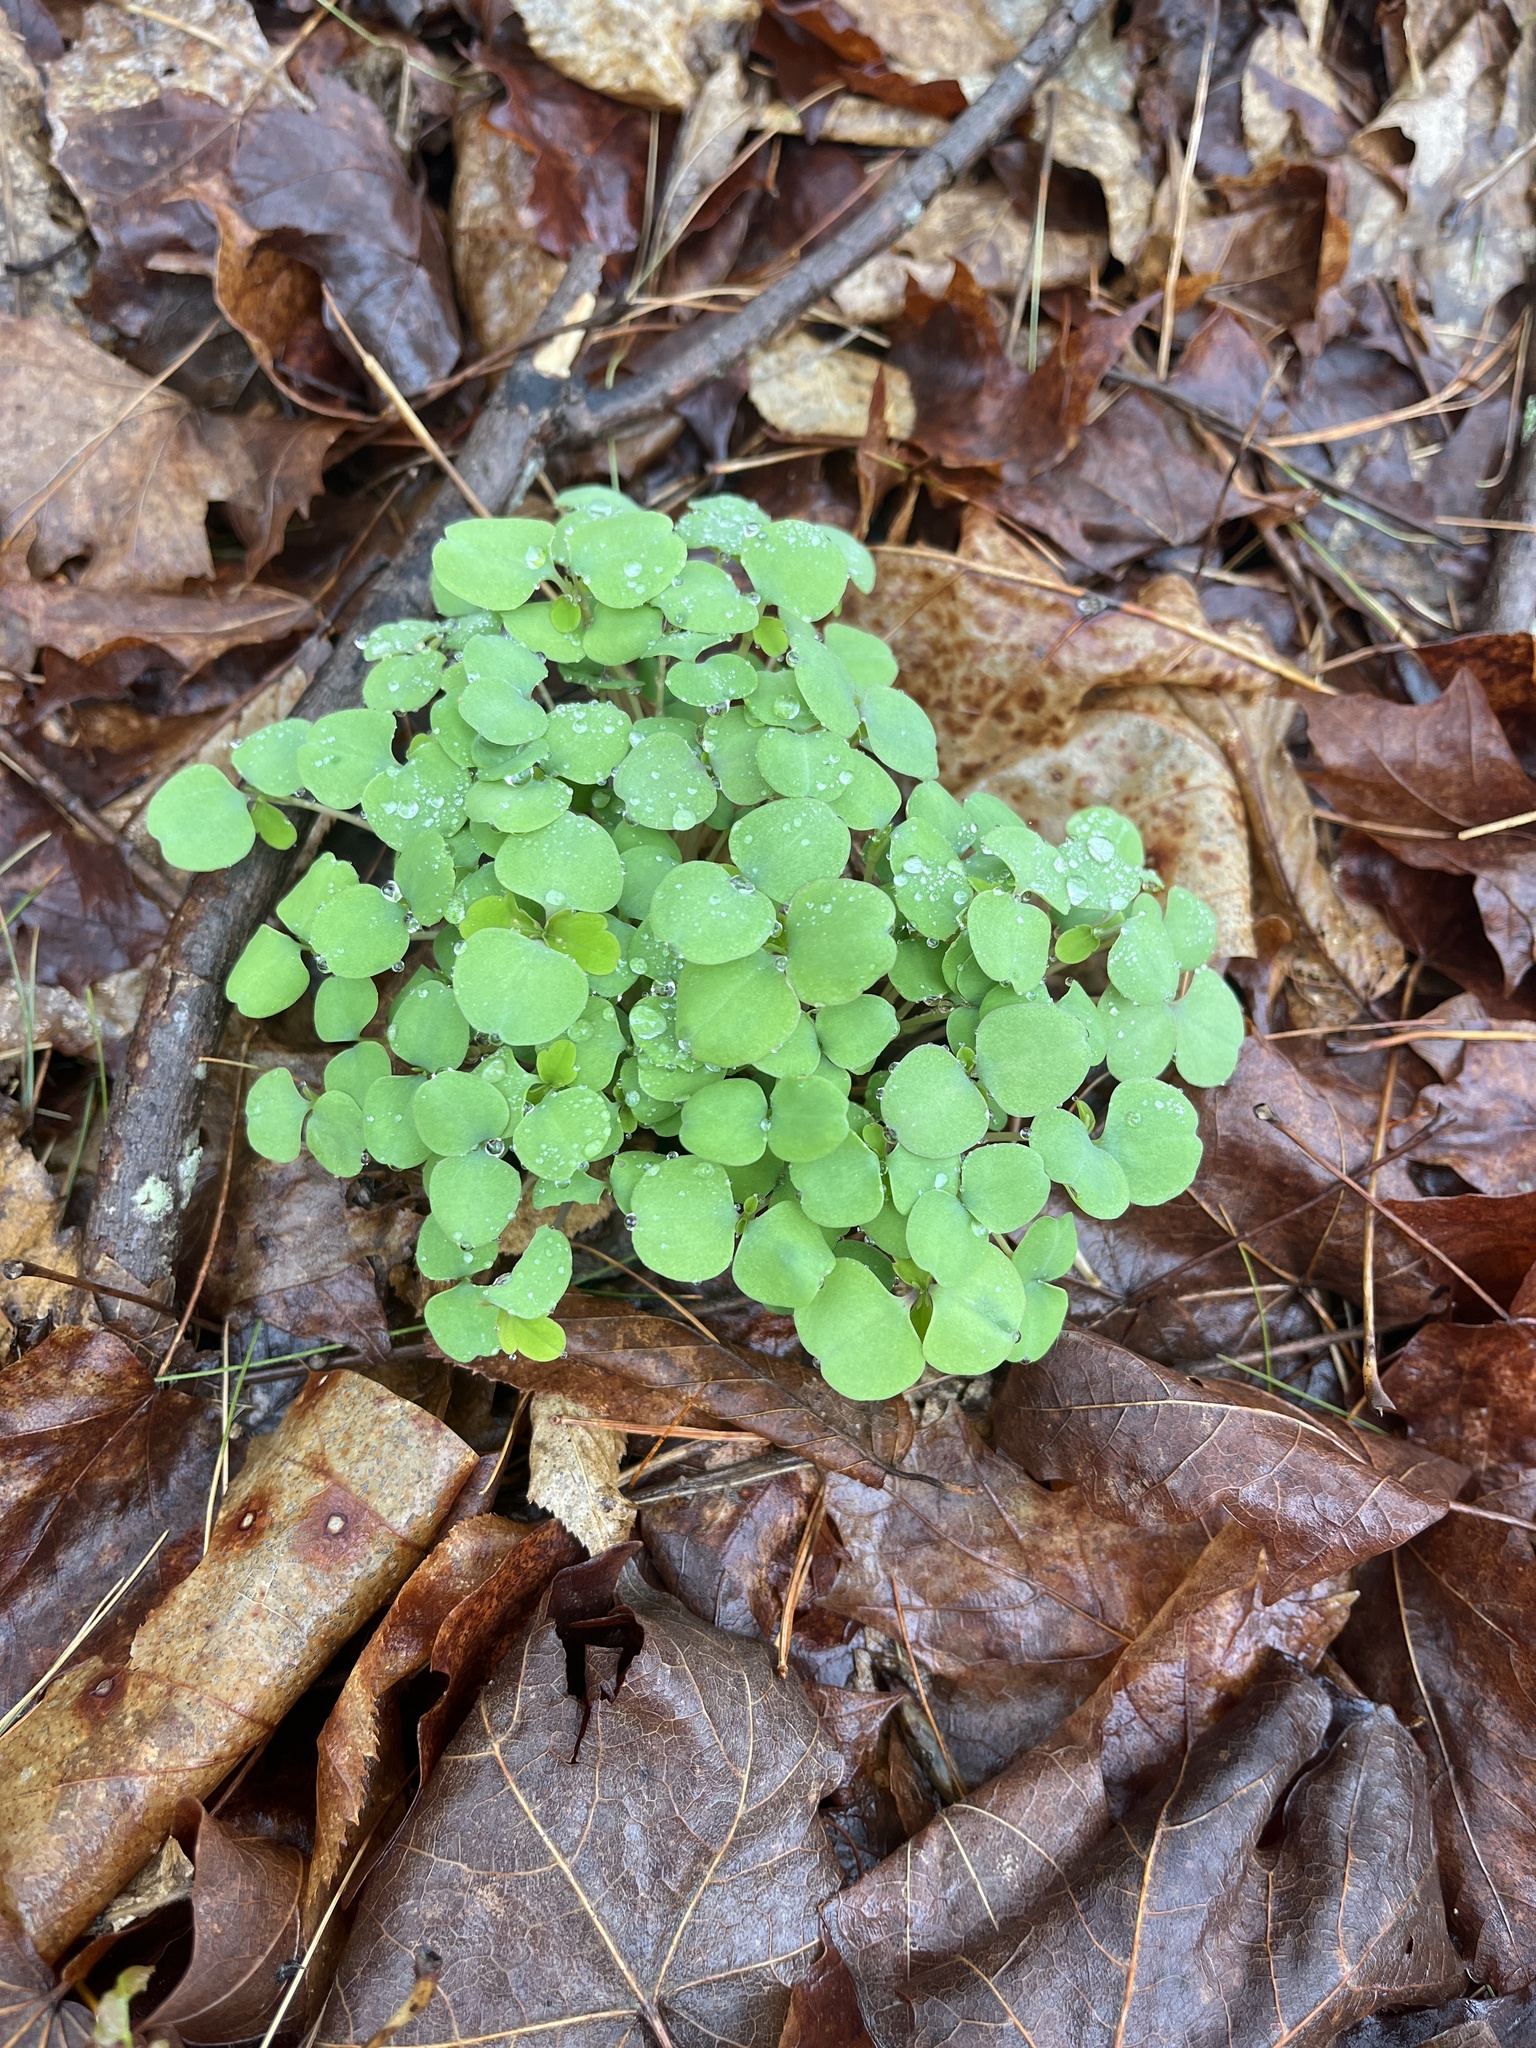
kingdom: Plantae
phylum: Tracheophyta
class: Magnoliopsida
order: Ericales
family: Balsaminaceae
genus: Impatiens
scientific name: Impatiens capensis
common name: Orange balsam
